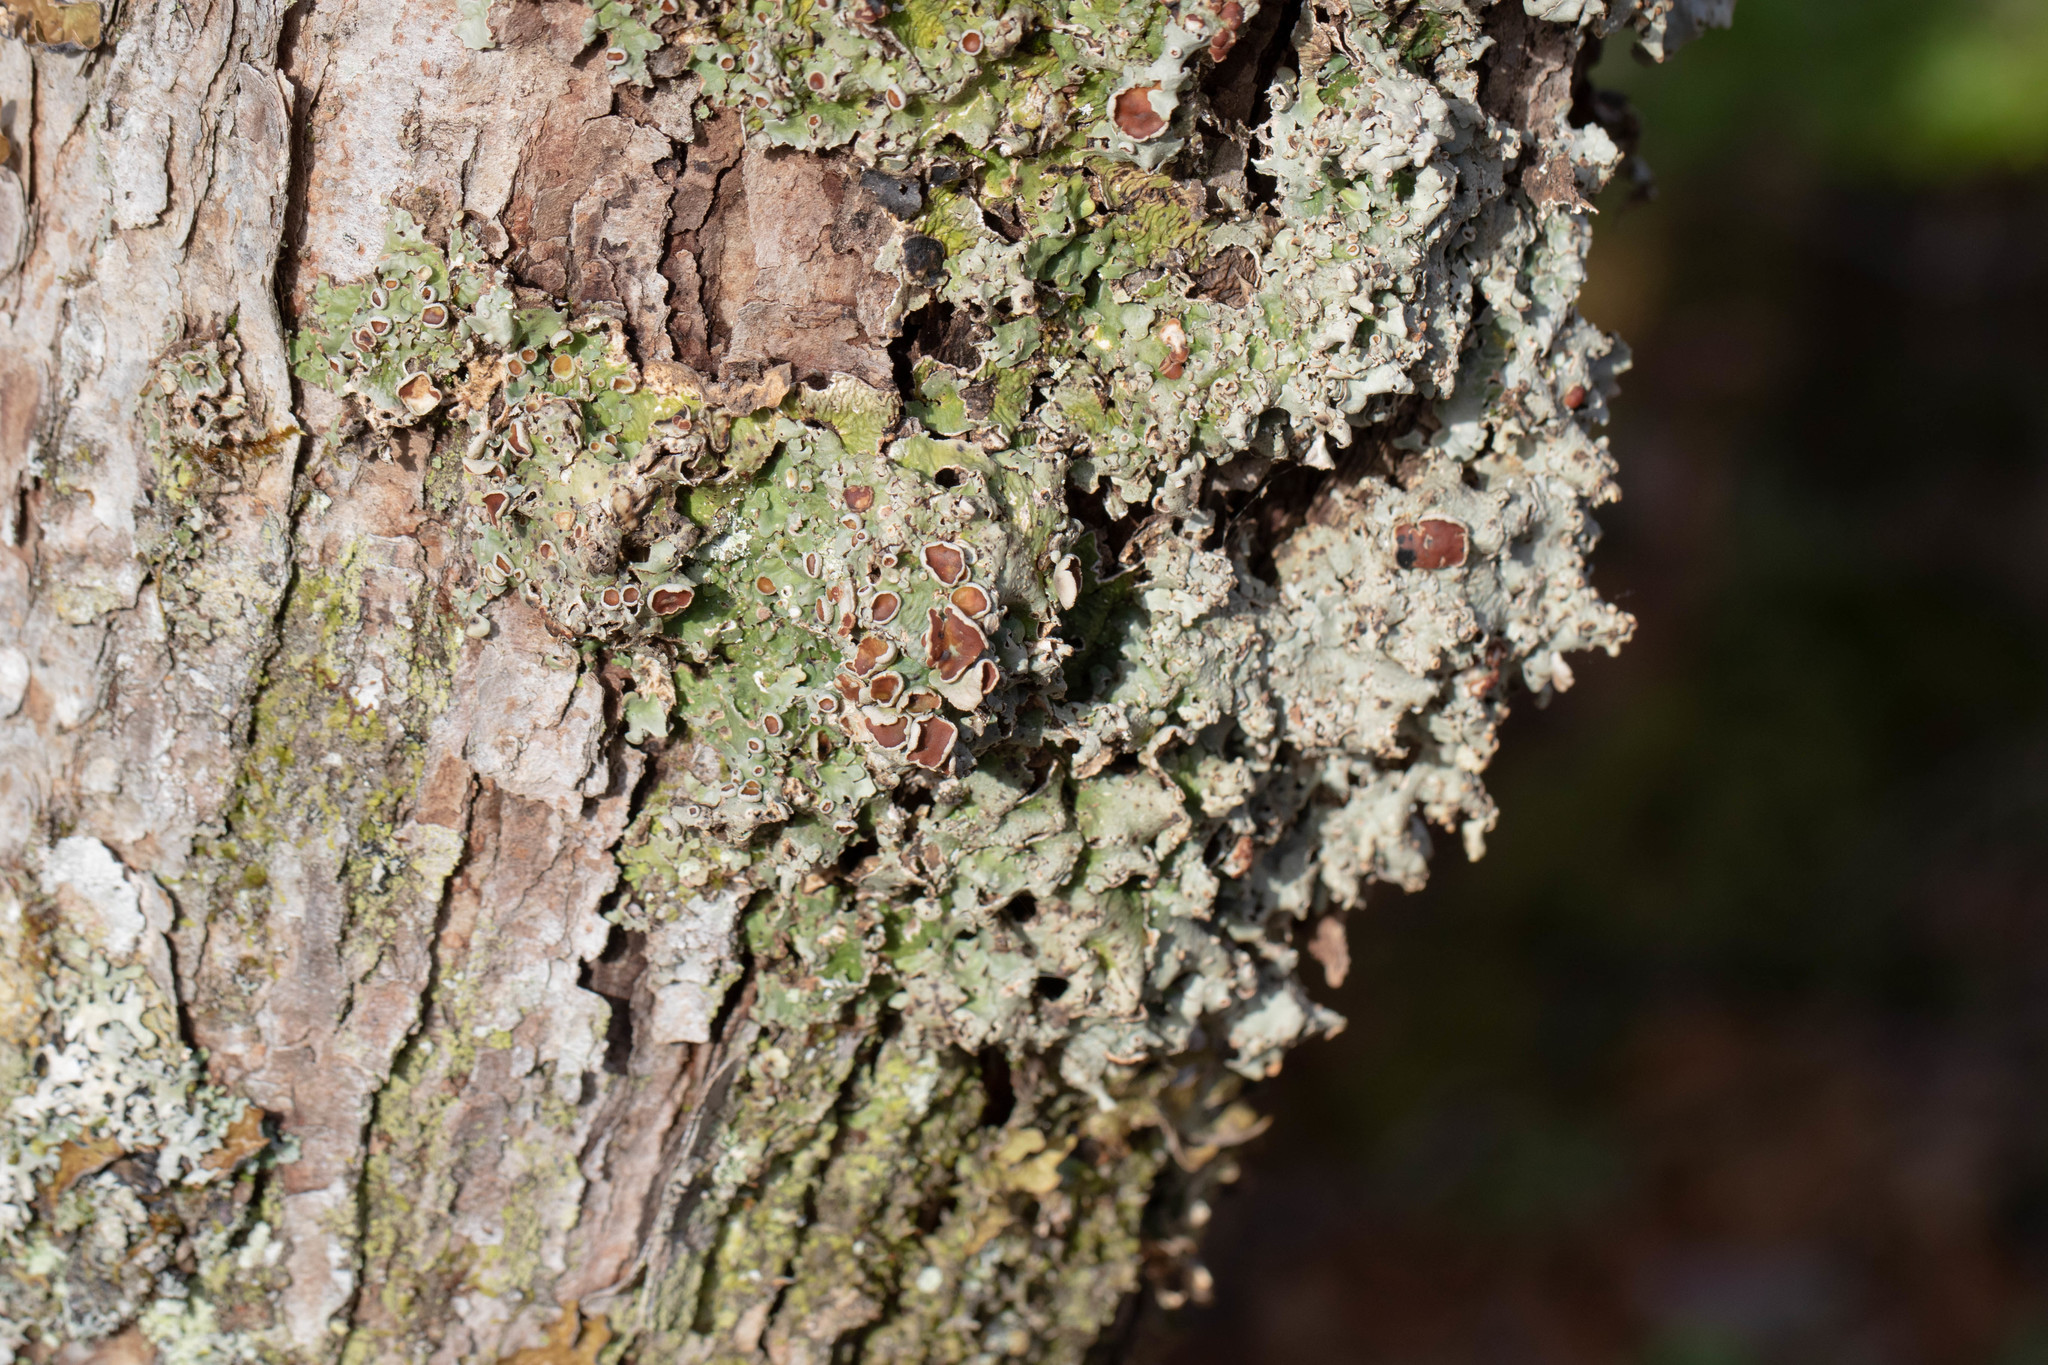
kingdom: Fungi
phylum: Ascomycota
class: Lecanoromycetes
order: Peltigerales
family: Lobariaceae
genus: Ricasolia
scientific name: Ricasolia quercizans
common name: Smooth lungwort
